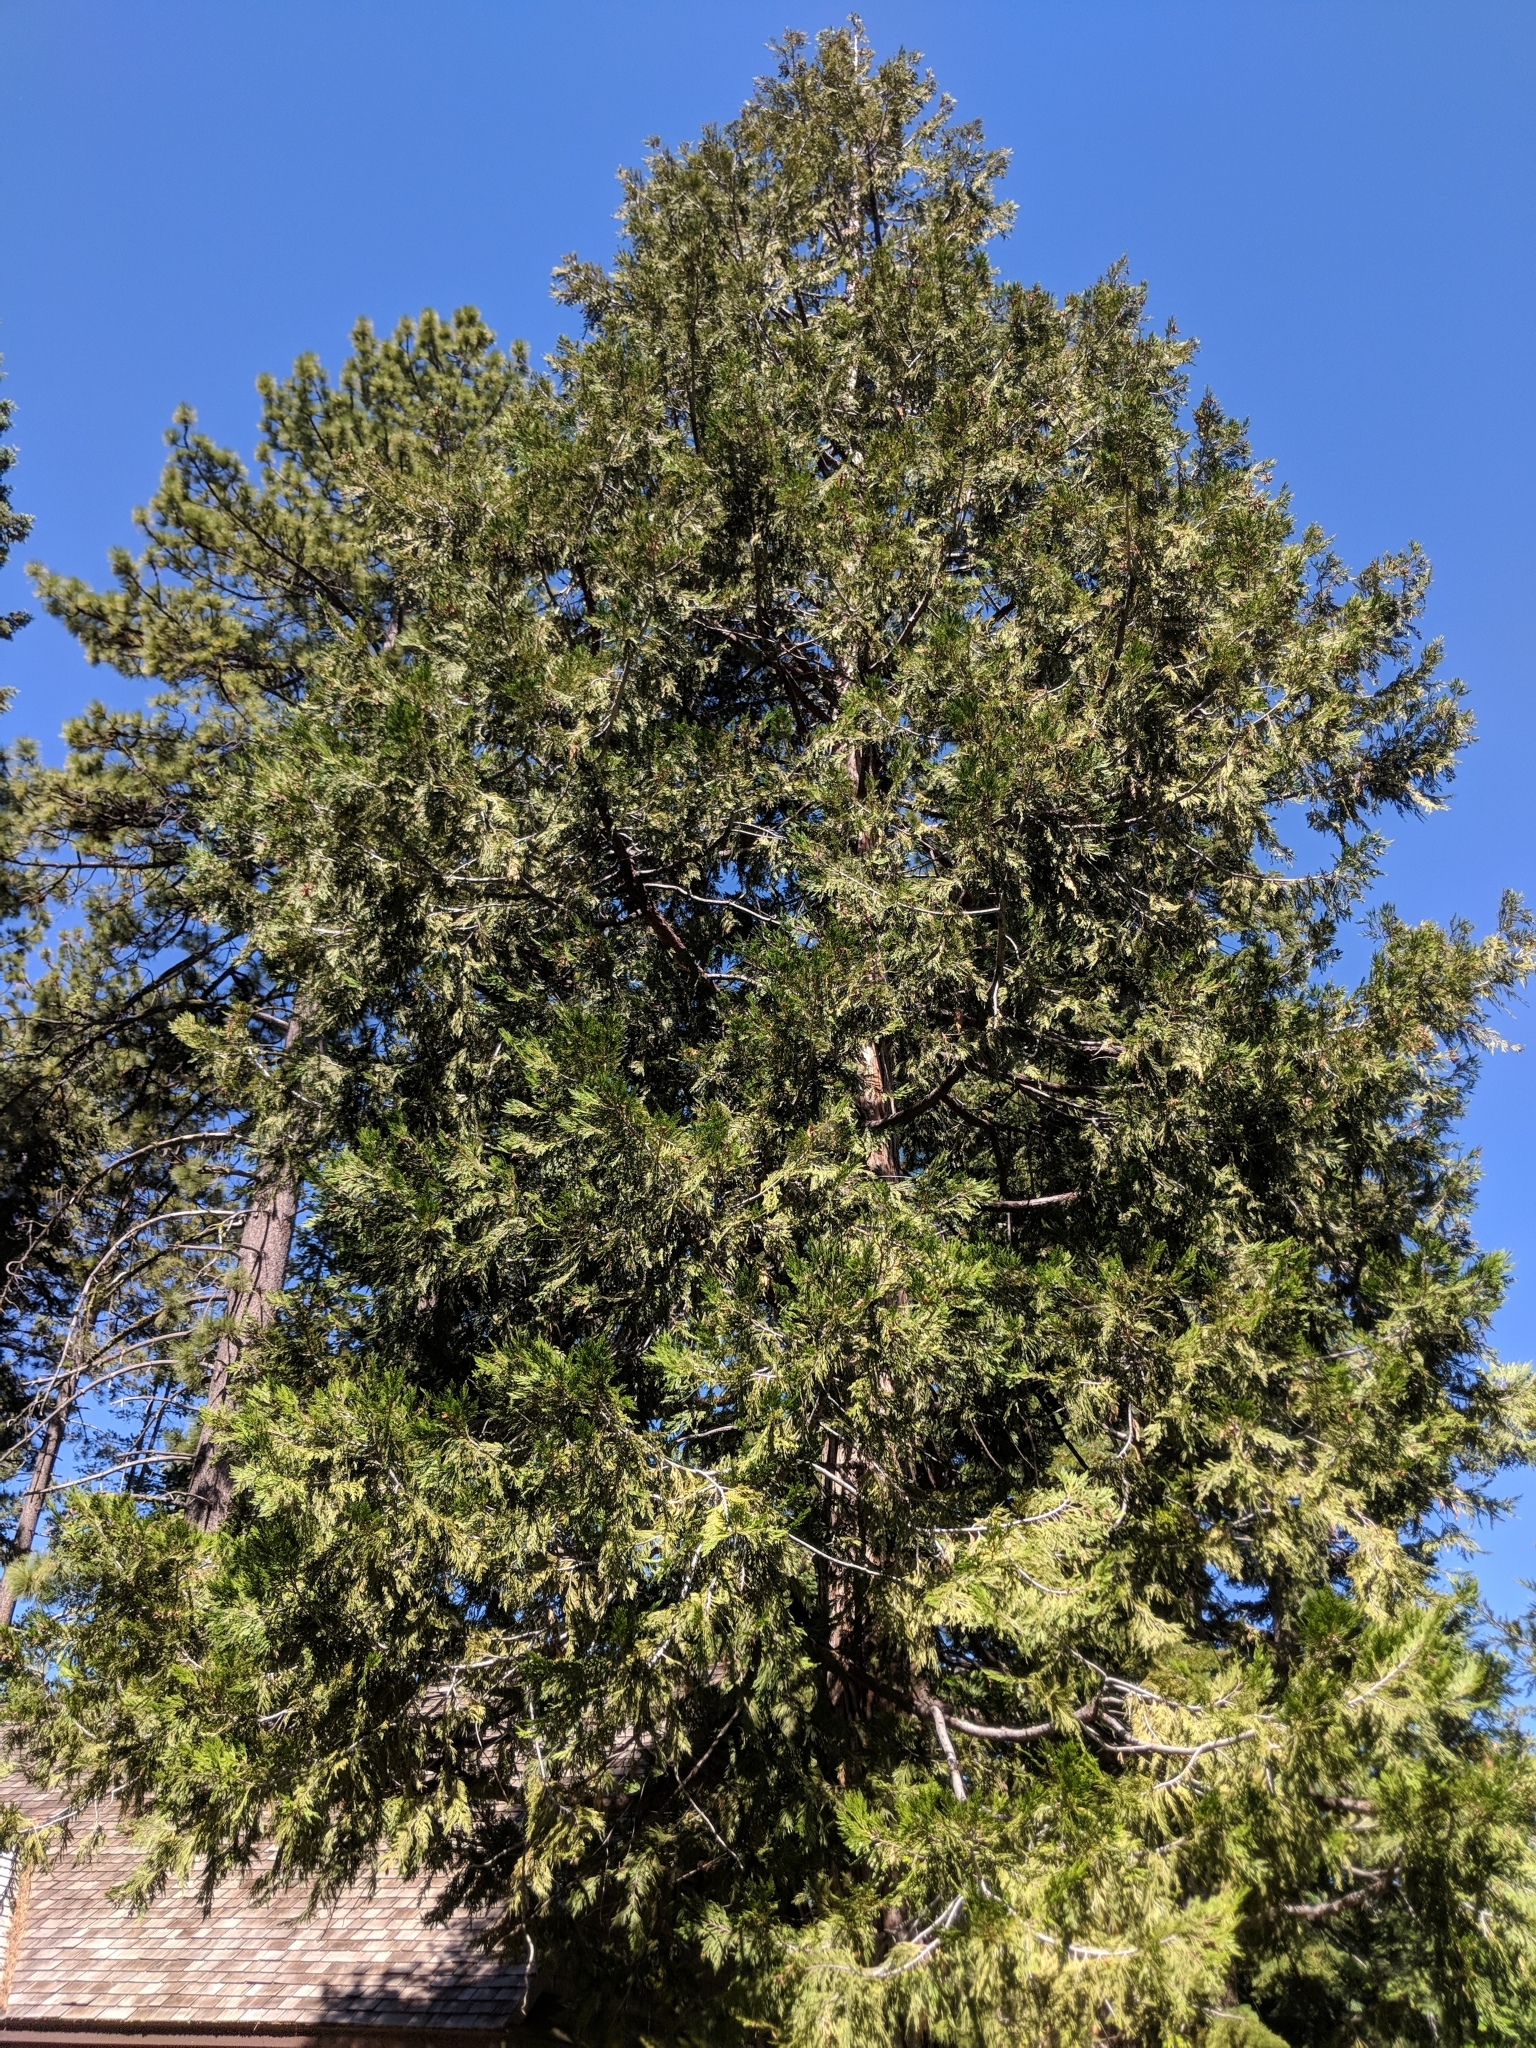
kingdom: Plantae
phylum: Tracheophyta
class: Pinopsida
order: Pinales
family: Cupressaceae
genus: Calocedrus
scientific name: Calocedrus decurrens
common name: Californian incense-cedar
